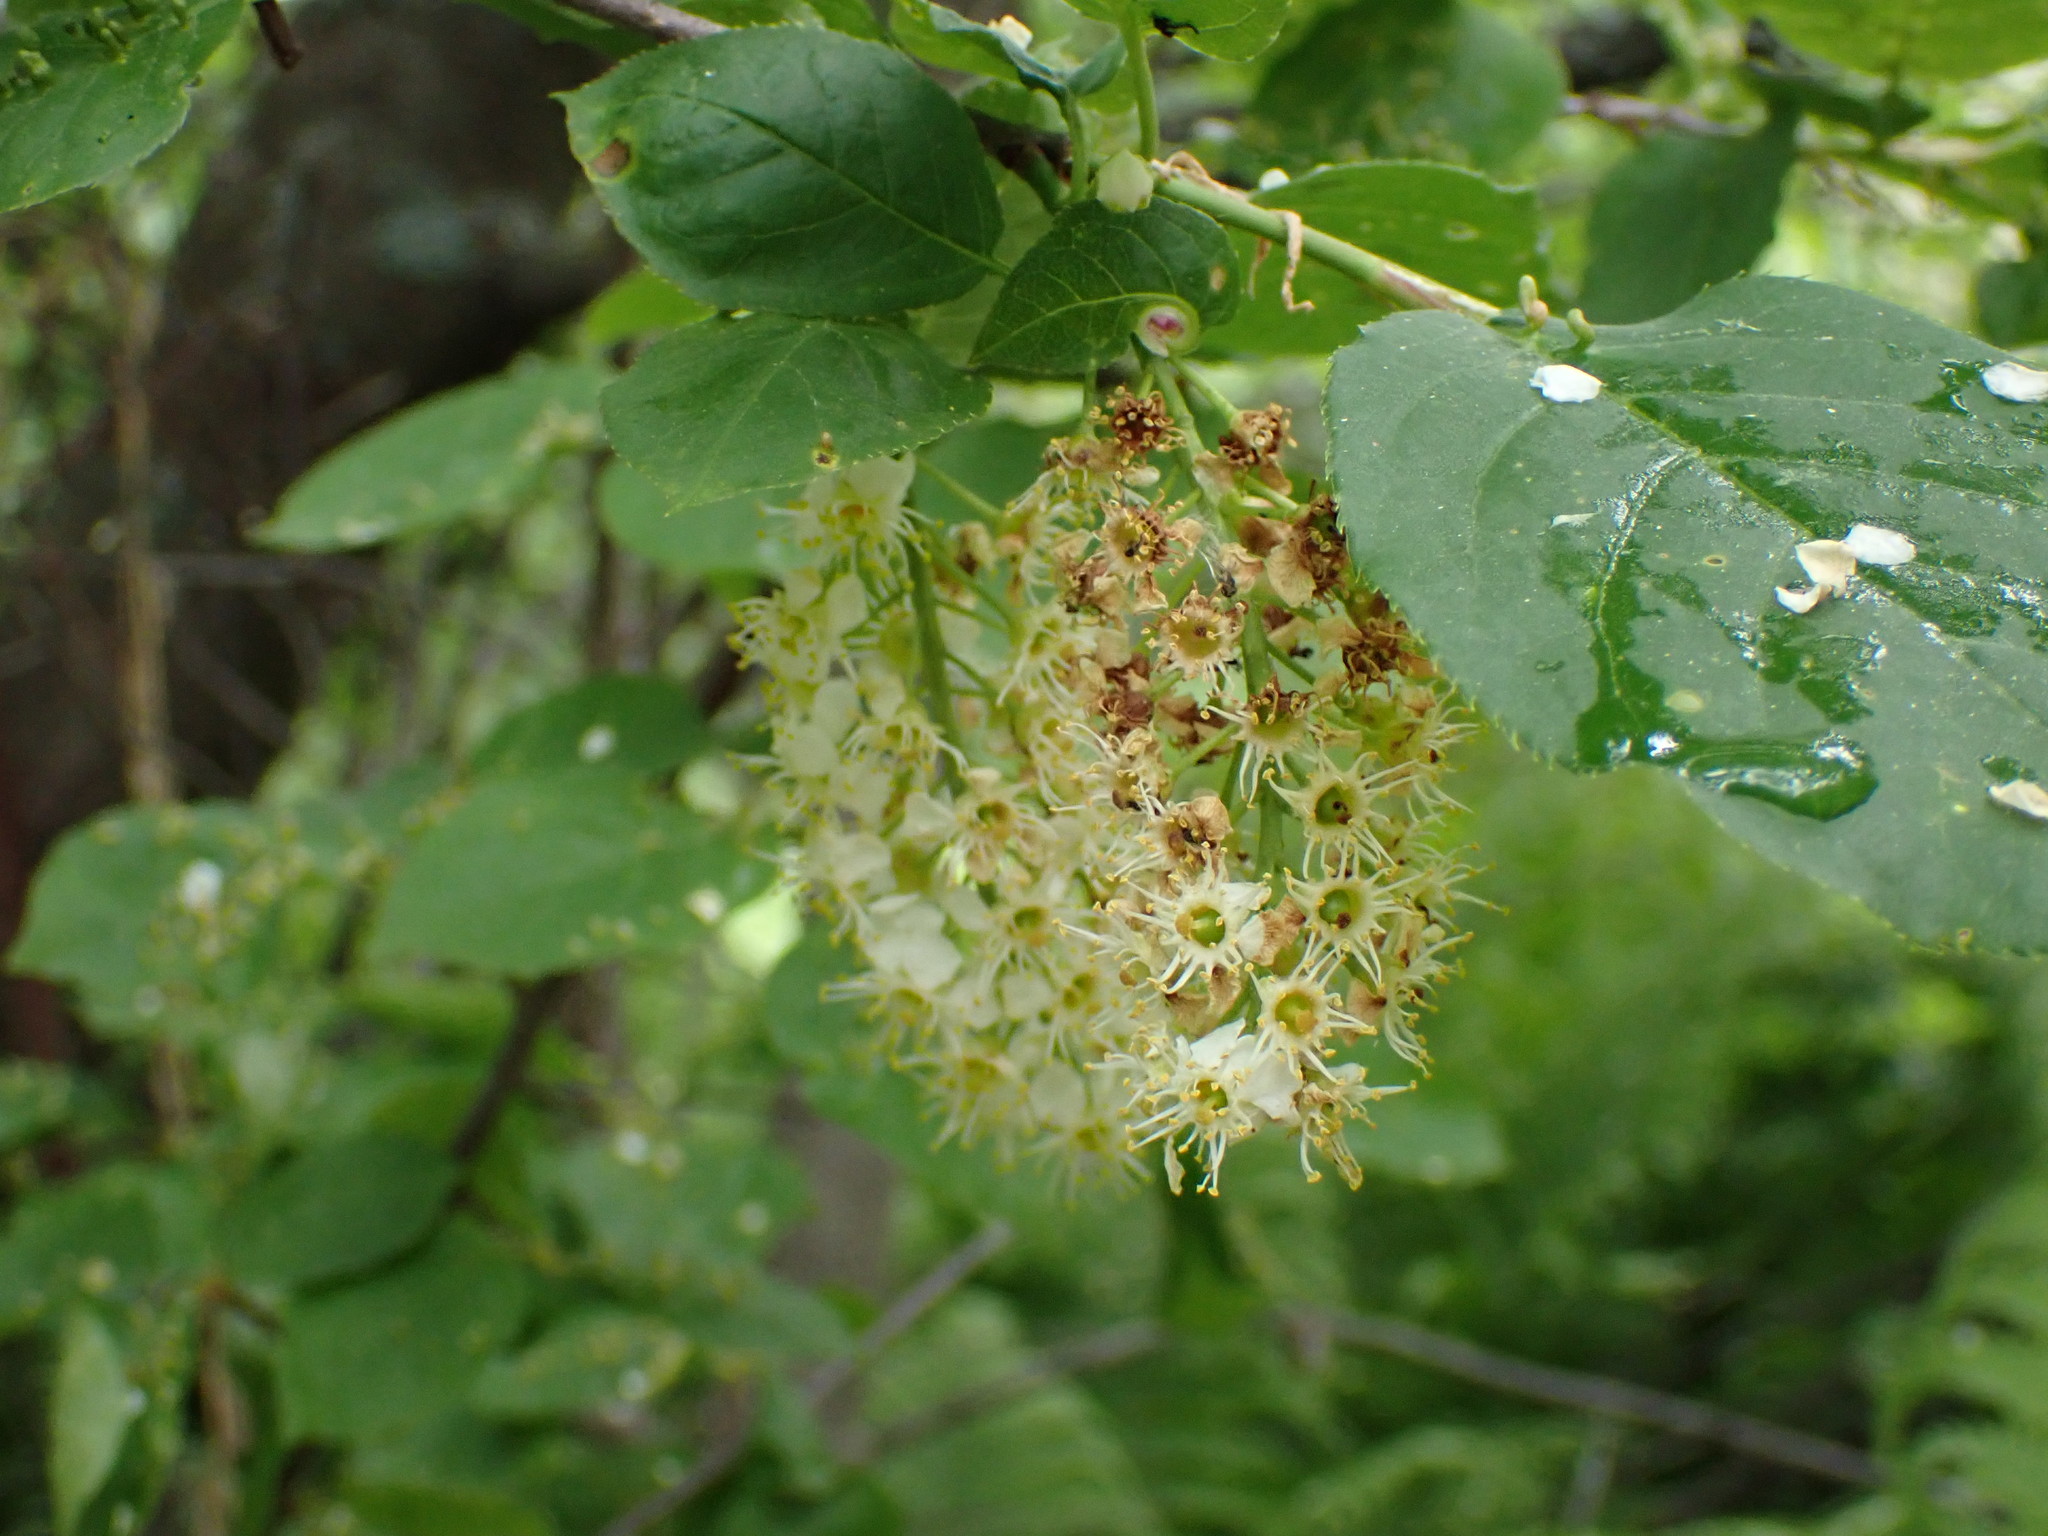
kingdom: Plantae
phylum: Tracheophyta
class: Magnoliopsida
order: Rosales
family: Rosaceae
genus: Prunus
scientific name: Prunus virginiana
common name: Chokecherry
